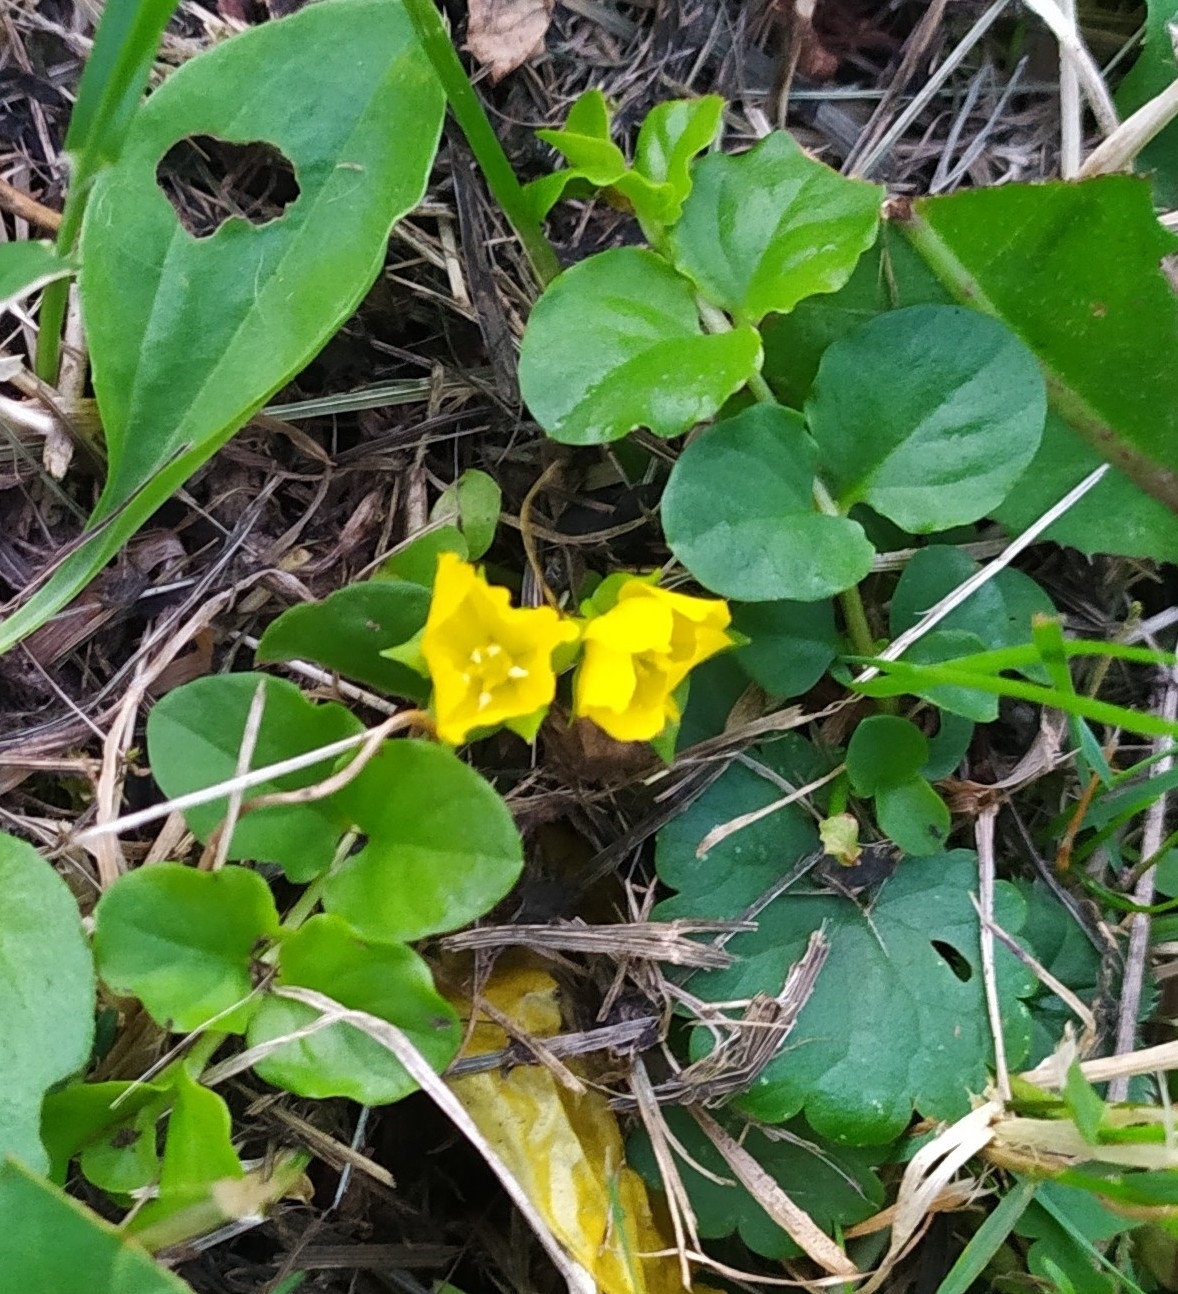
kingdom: Plantae
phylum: Tracheophyta
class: Magnoliopsida
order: Ericales
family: Primulaceae
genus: Lysimachia
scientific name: Lysimachia nummularia
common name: Moneywort
